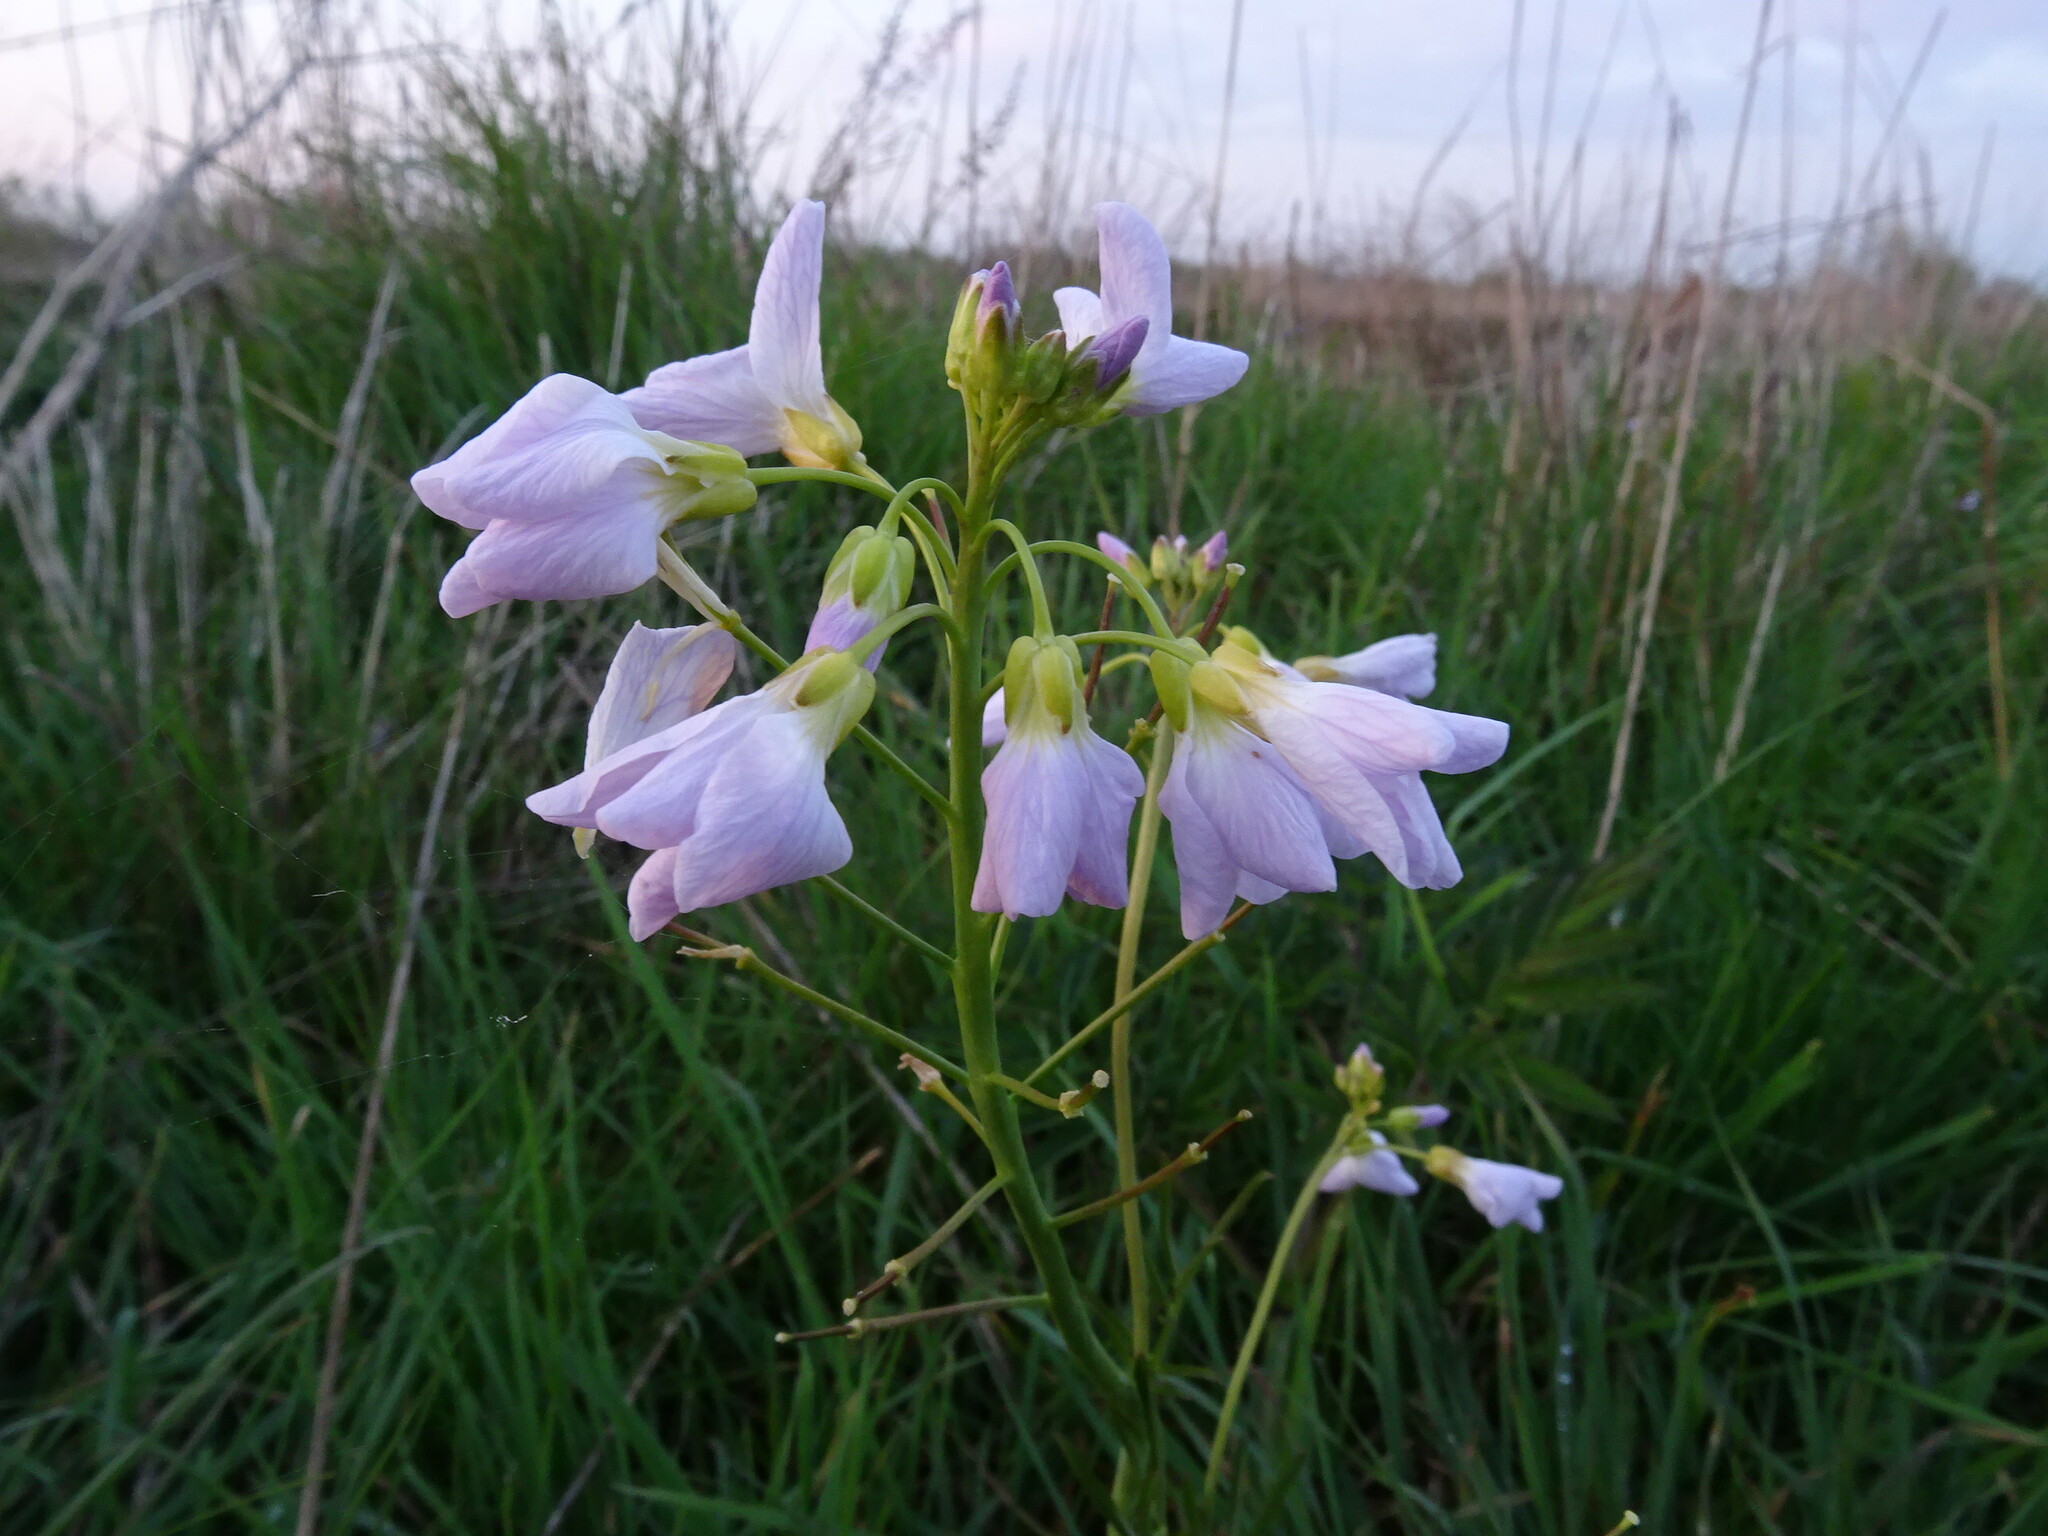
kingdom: Plantae
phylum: Tracheophyta
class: Magnoliopsida
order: Brassicales
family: Brassicaceae
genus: Cardamine
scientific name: Cardamine pratensis
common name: Cuckoo flower
